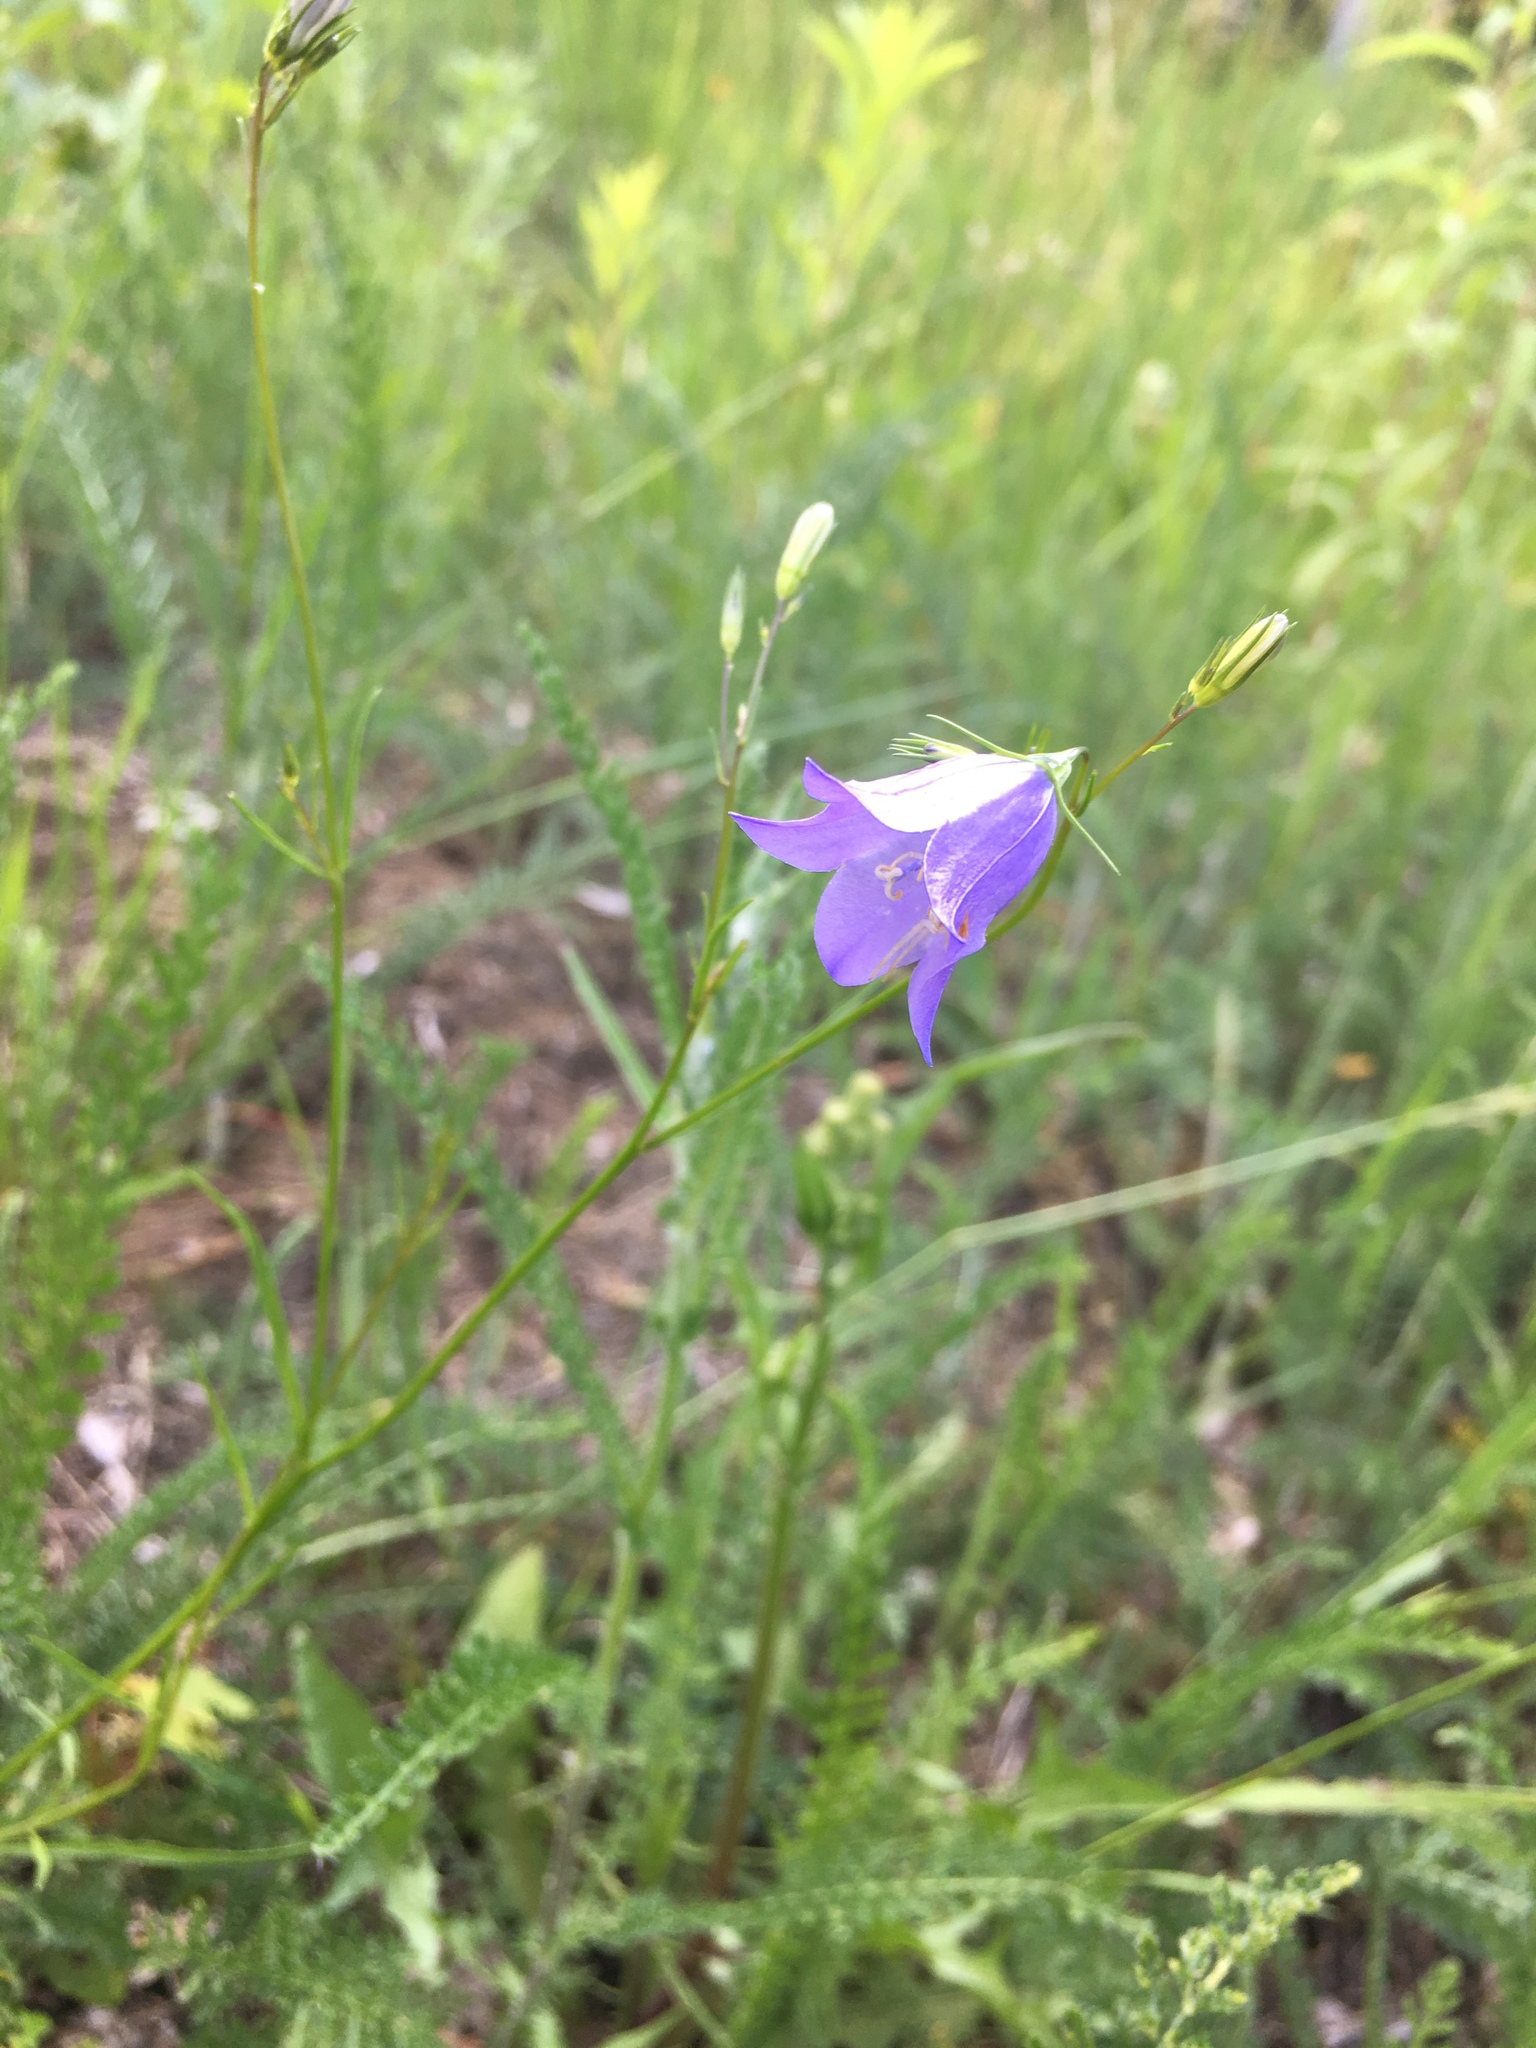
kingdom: Plantae
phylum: Tracheophyta
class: Magnoliopsida
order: Asterales
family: Campanulaceae
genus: Campanula
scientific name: Campanula rotundifolia
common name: Harebell
